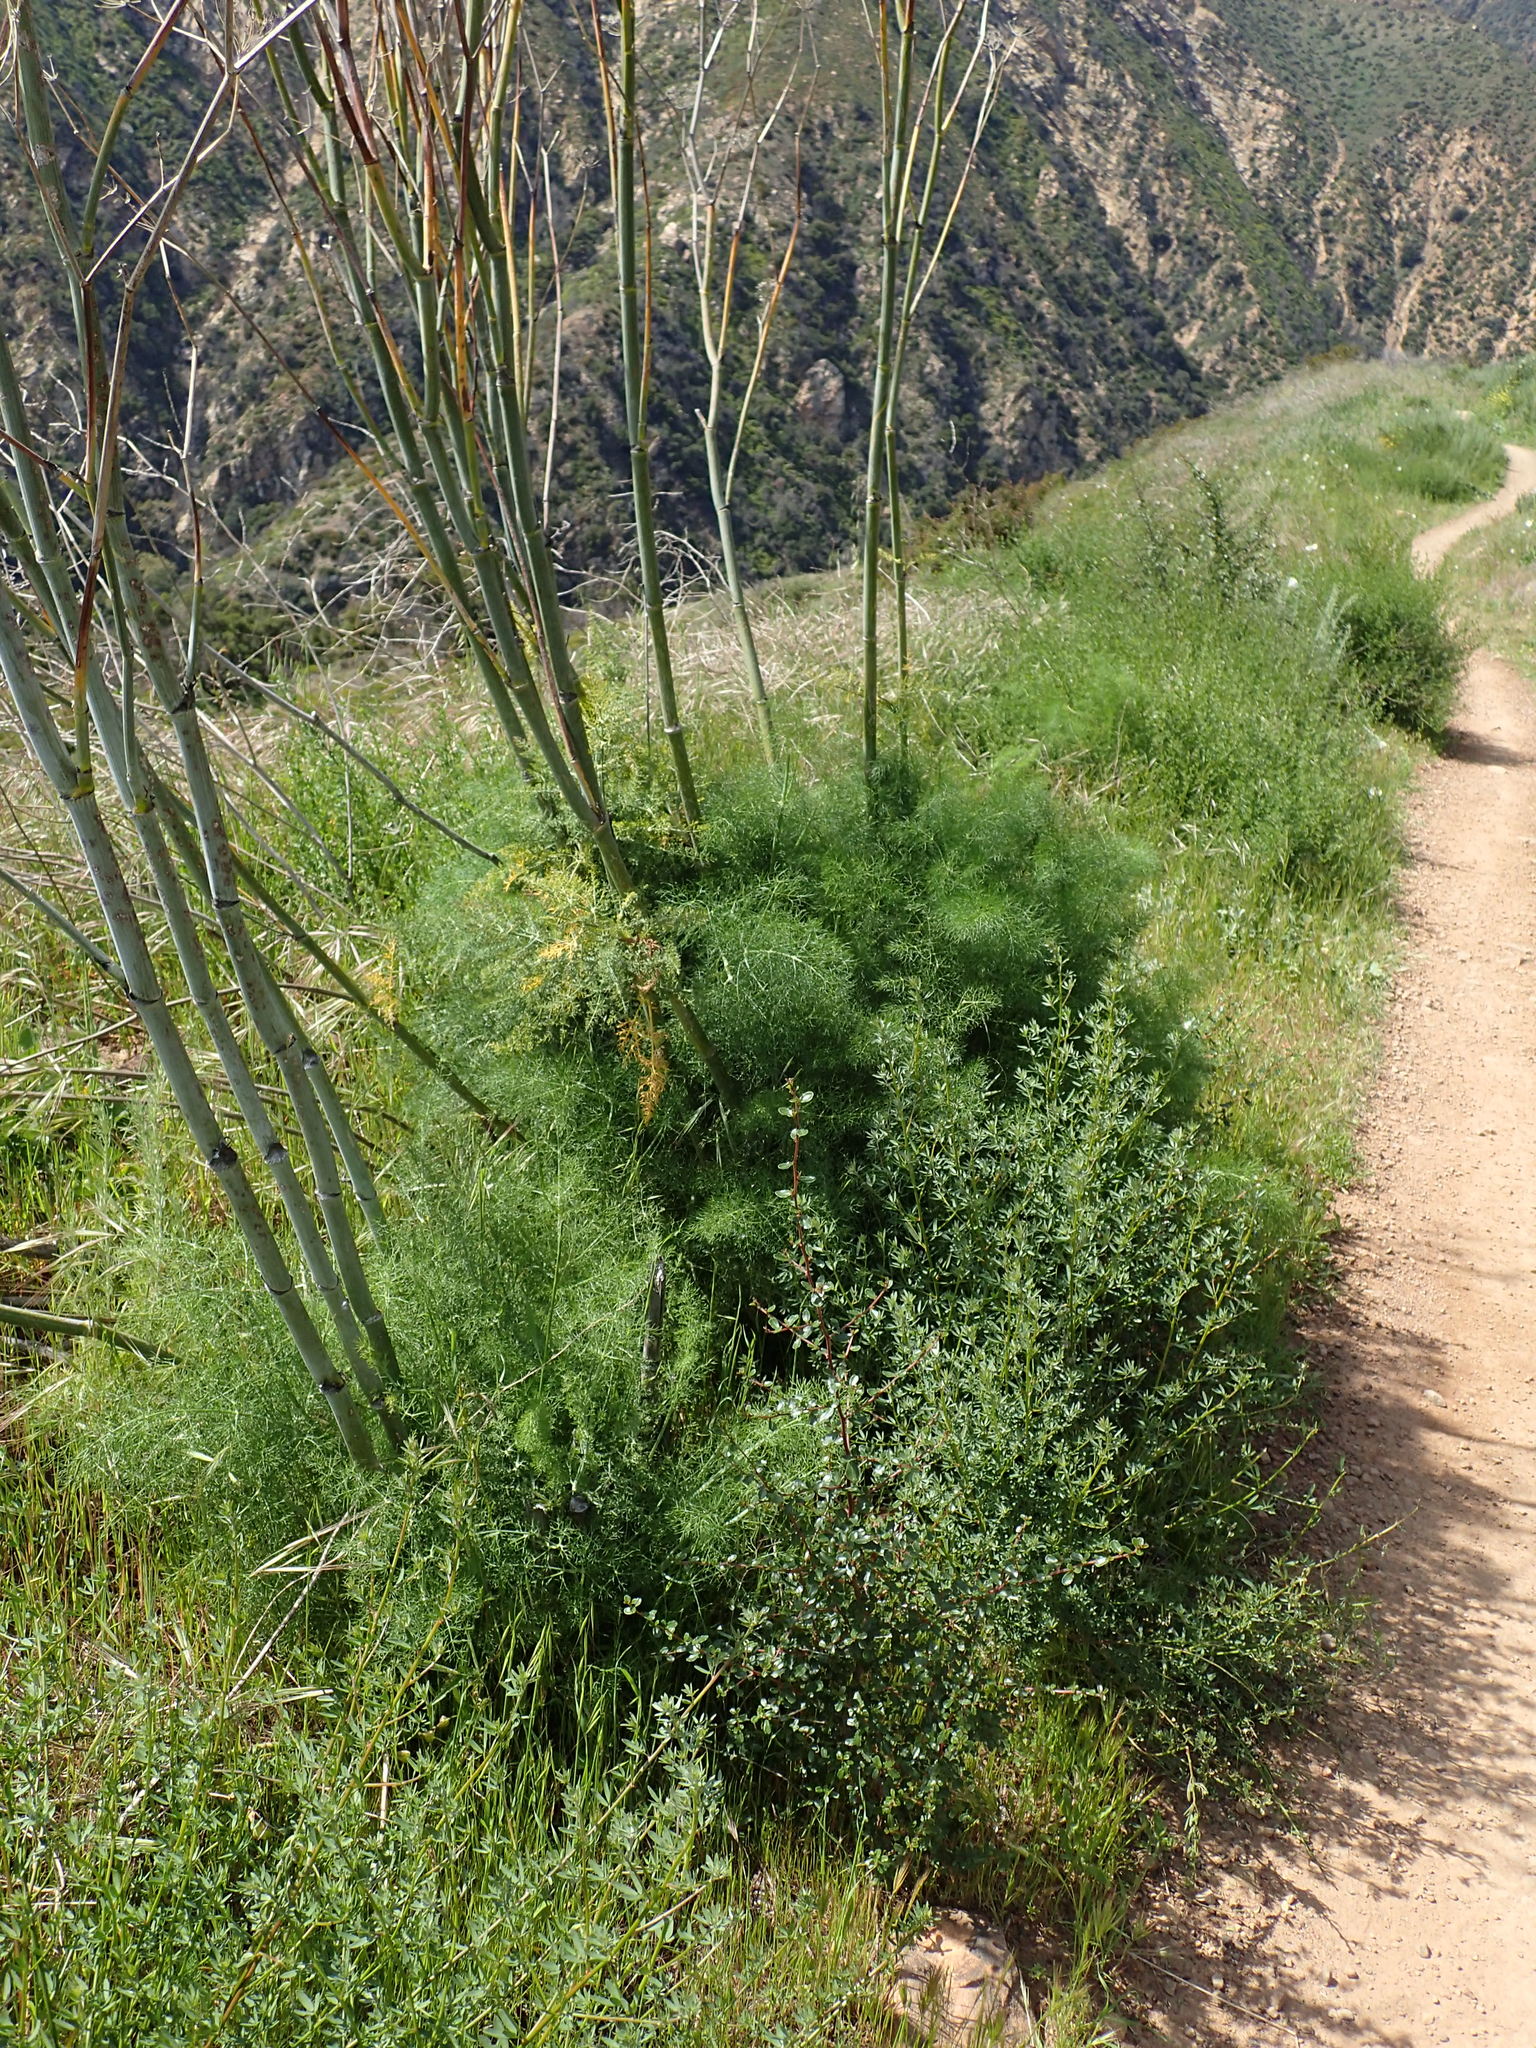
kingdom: Plantae
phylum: Tracheophyta
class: Magnoliopsida
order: Apiales
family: Apiaceae
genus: Foeniculum
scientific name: Foeniculum vulgare
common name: Fennel
